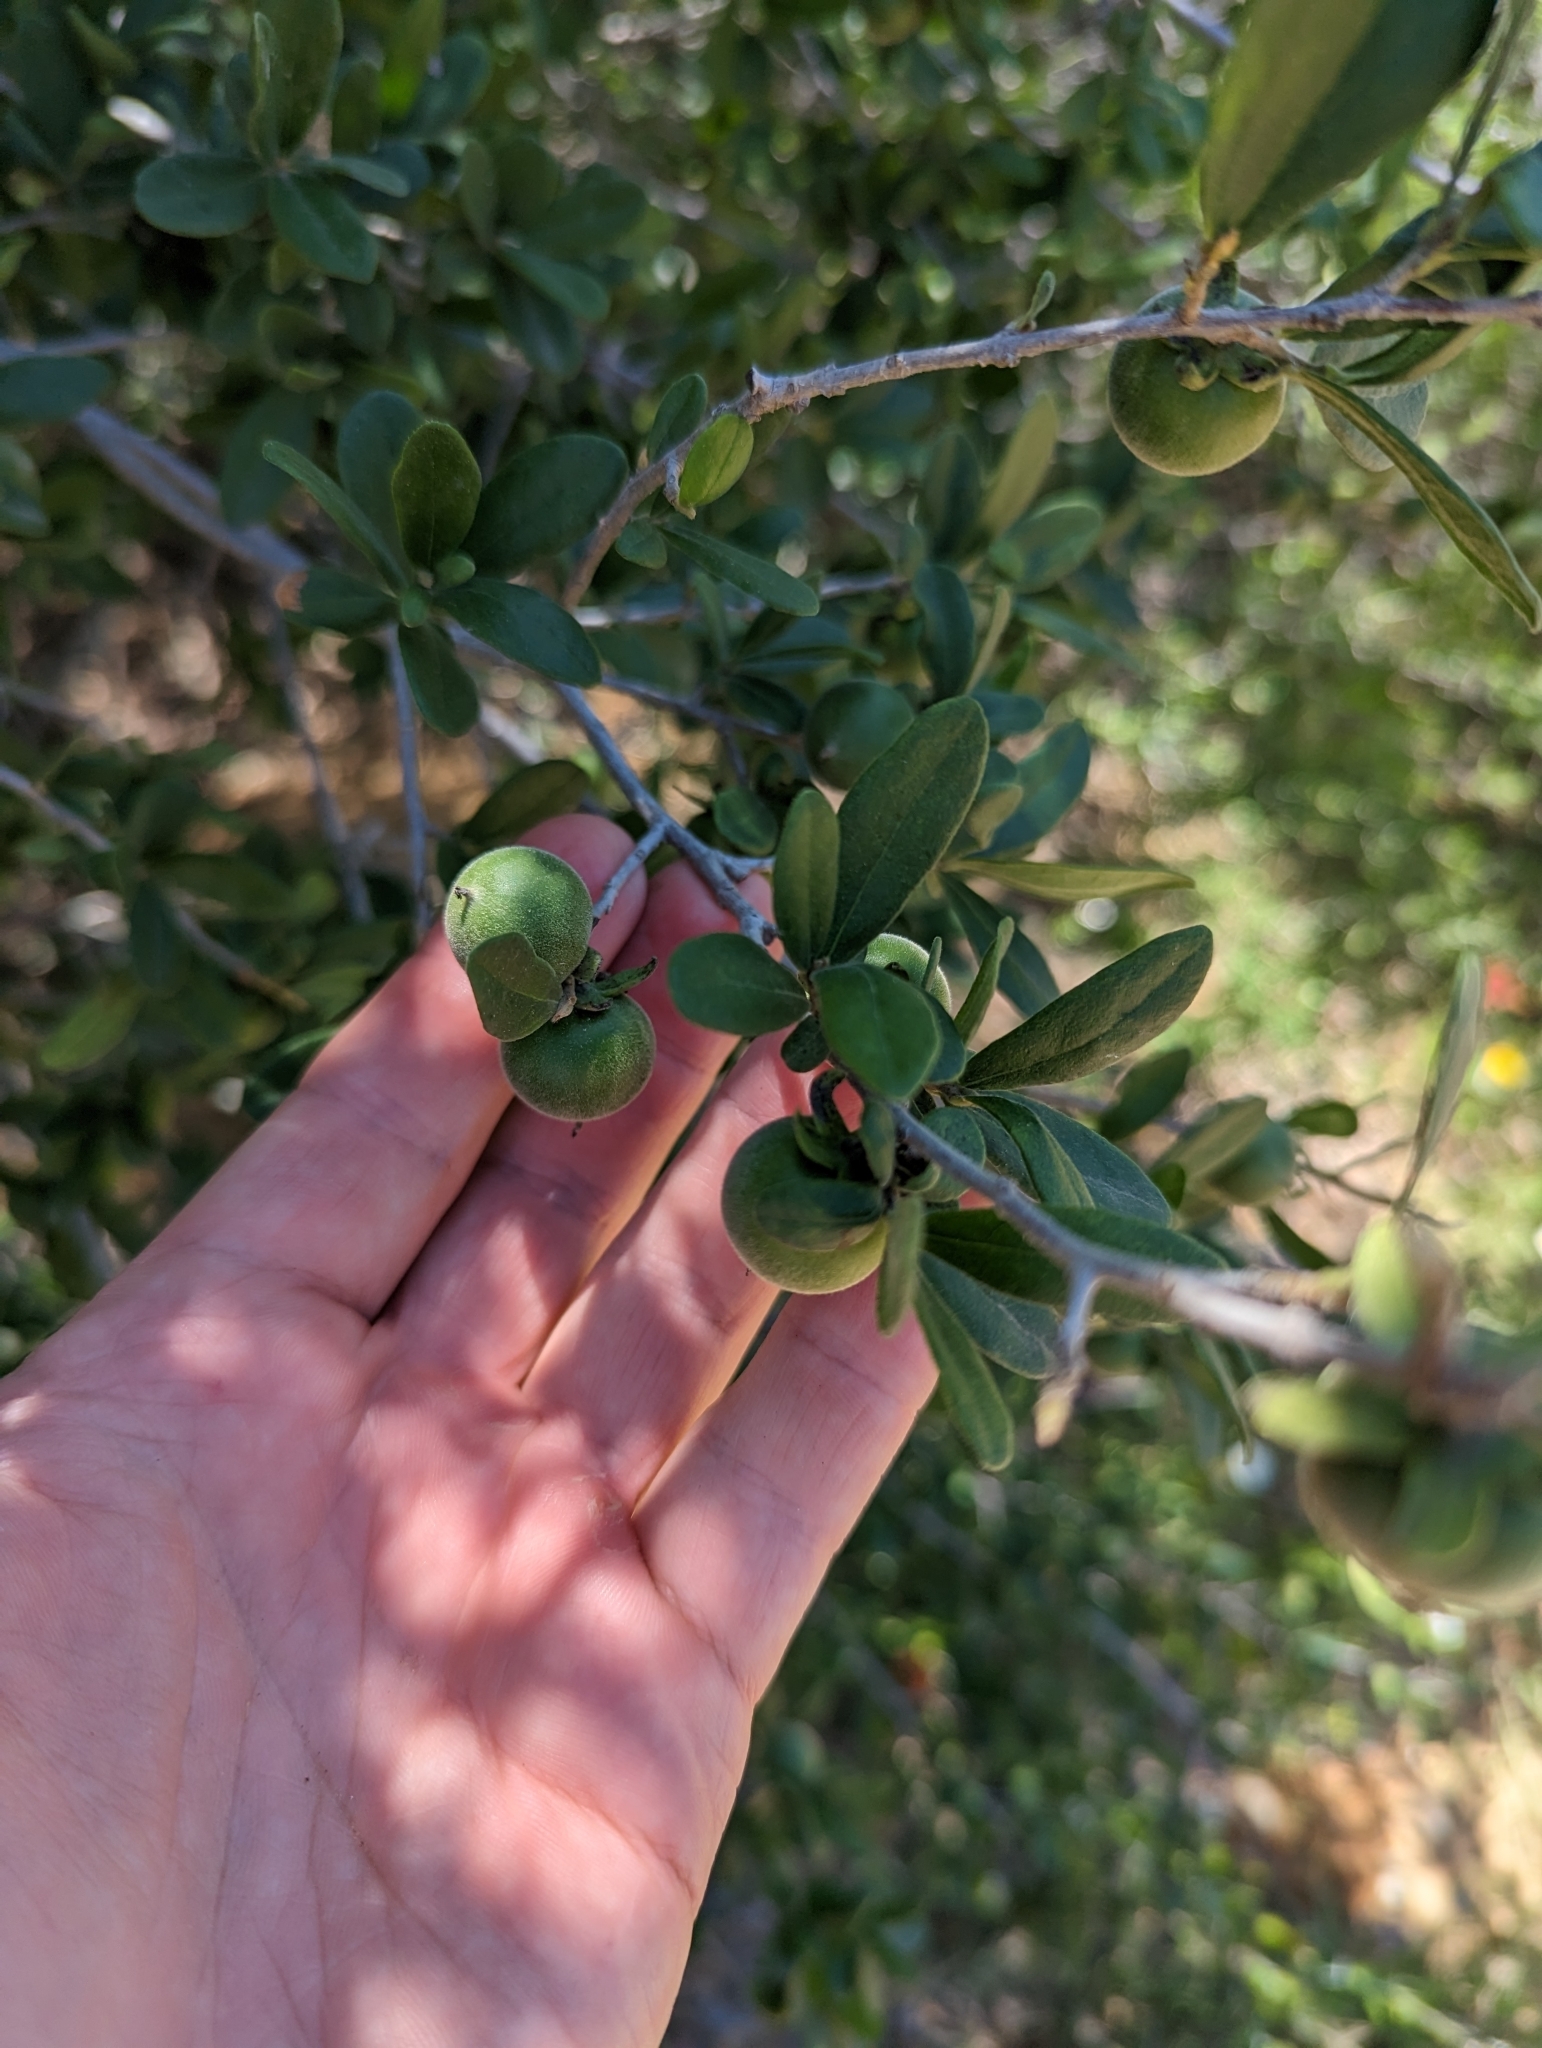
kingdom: Plantae
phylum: Tracheophyta
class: Magnoliopsida
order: Ericales
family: Ebenaceae
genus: Diospyros
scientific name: Diospyros texana
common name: Texas persimmon
